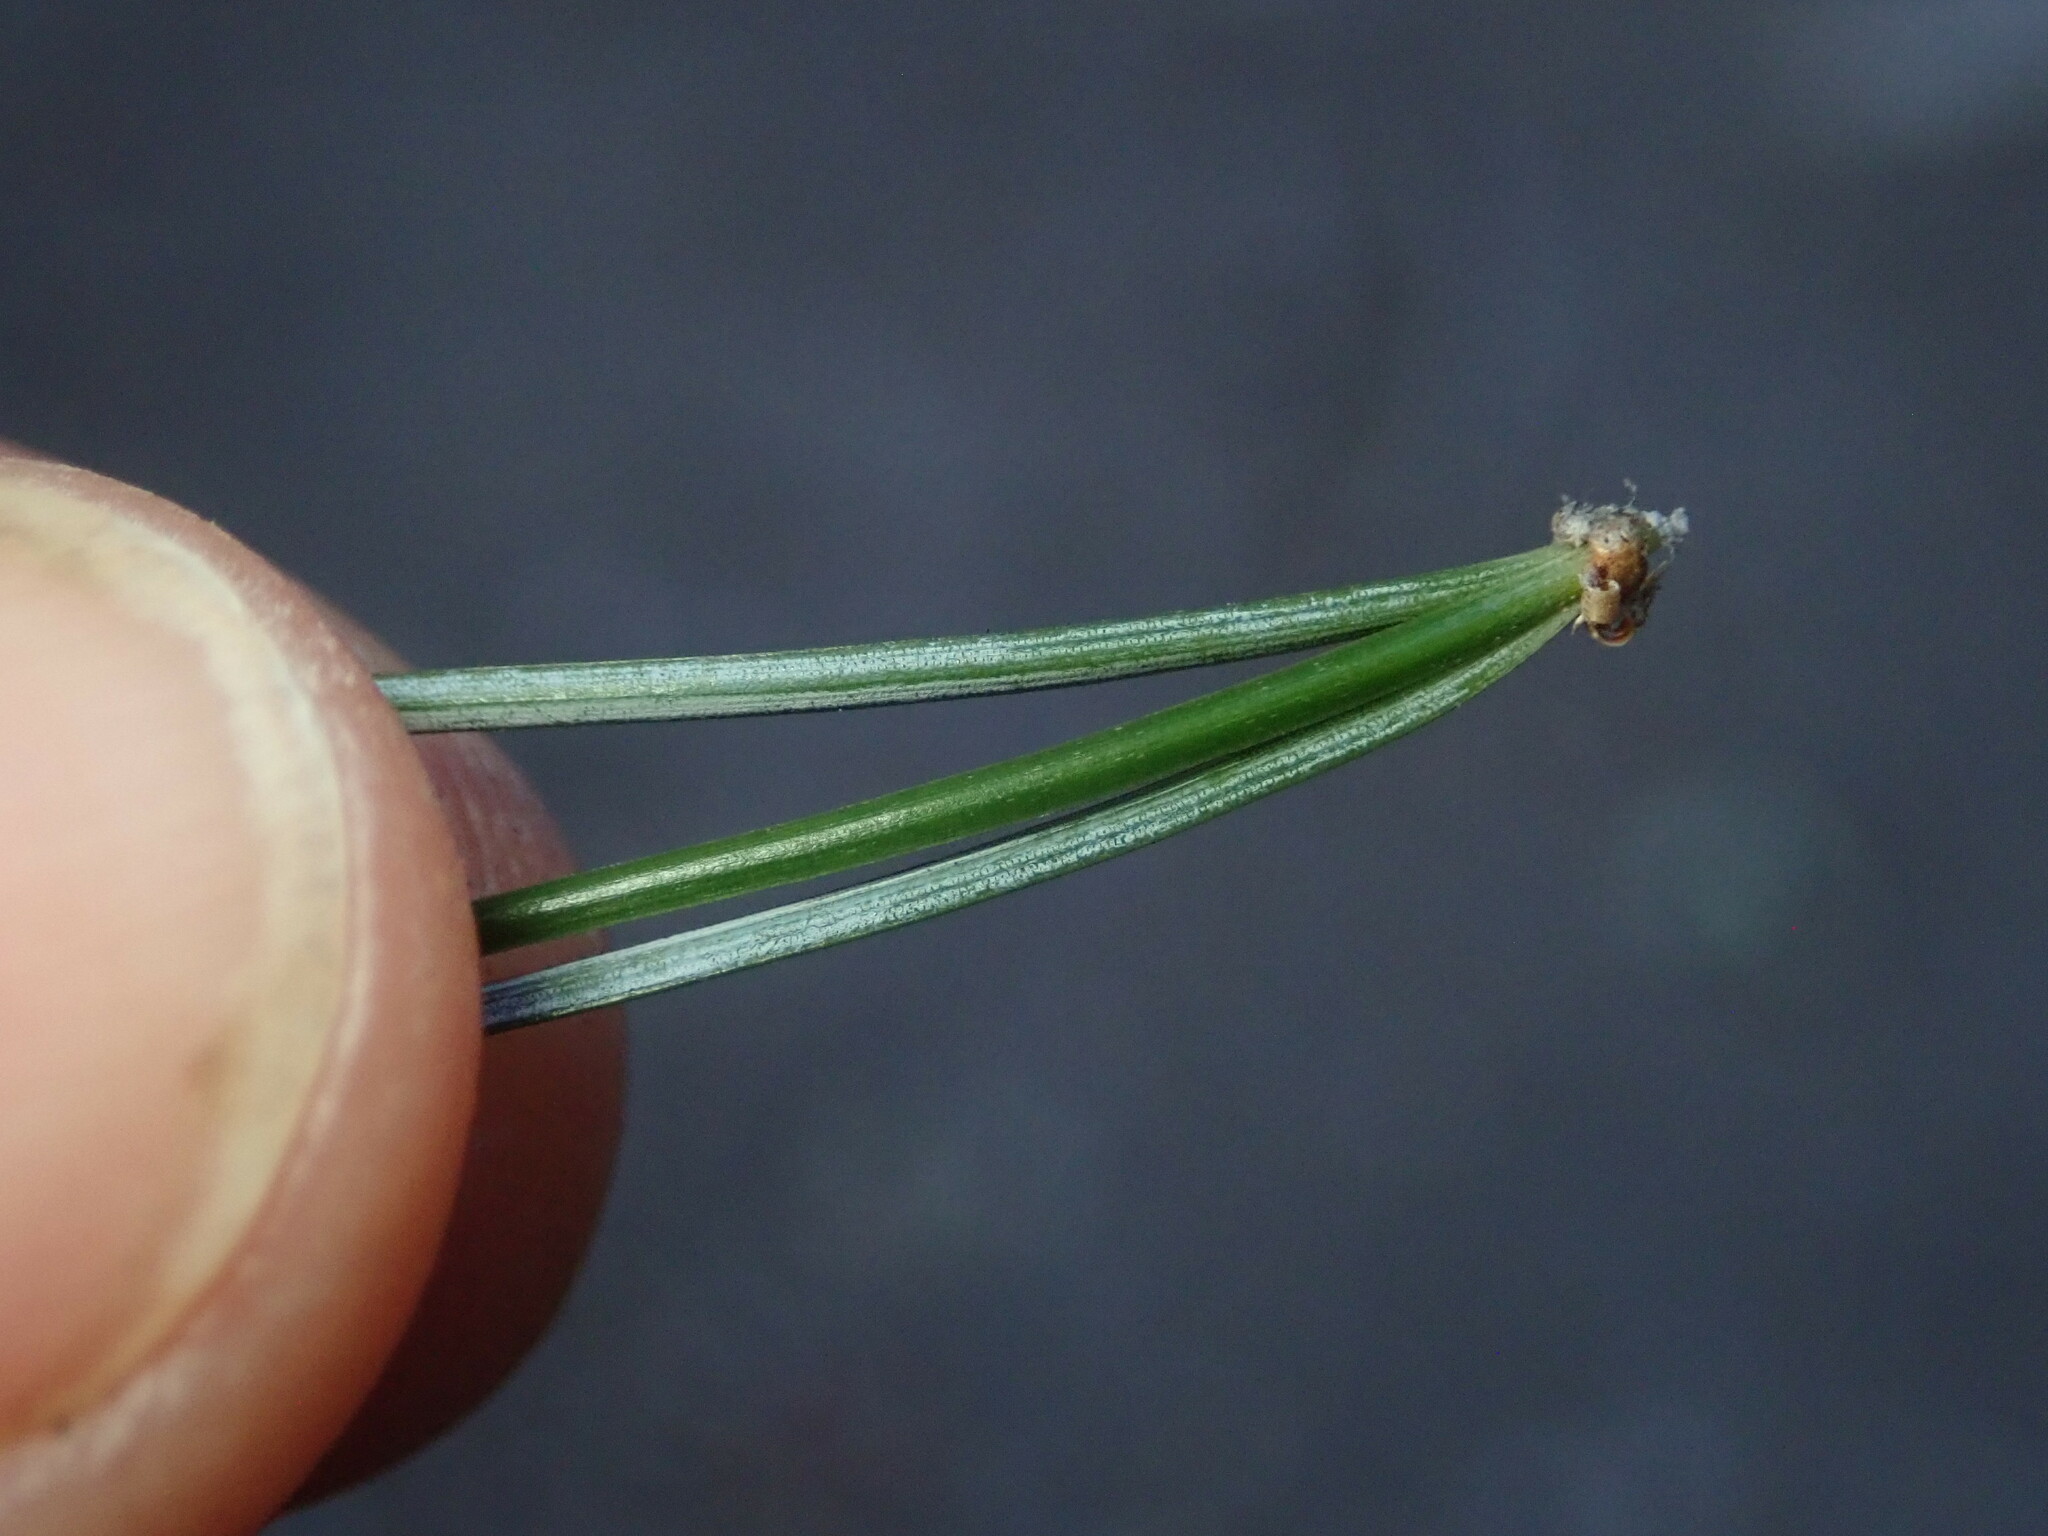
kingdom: Plantae
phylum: Tracheophyta
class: Pinopsida
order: Pinales
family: Pinaceae
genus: Pinus
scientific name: Pinus discolor
